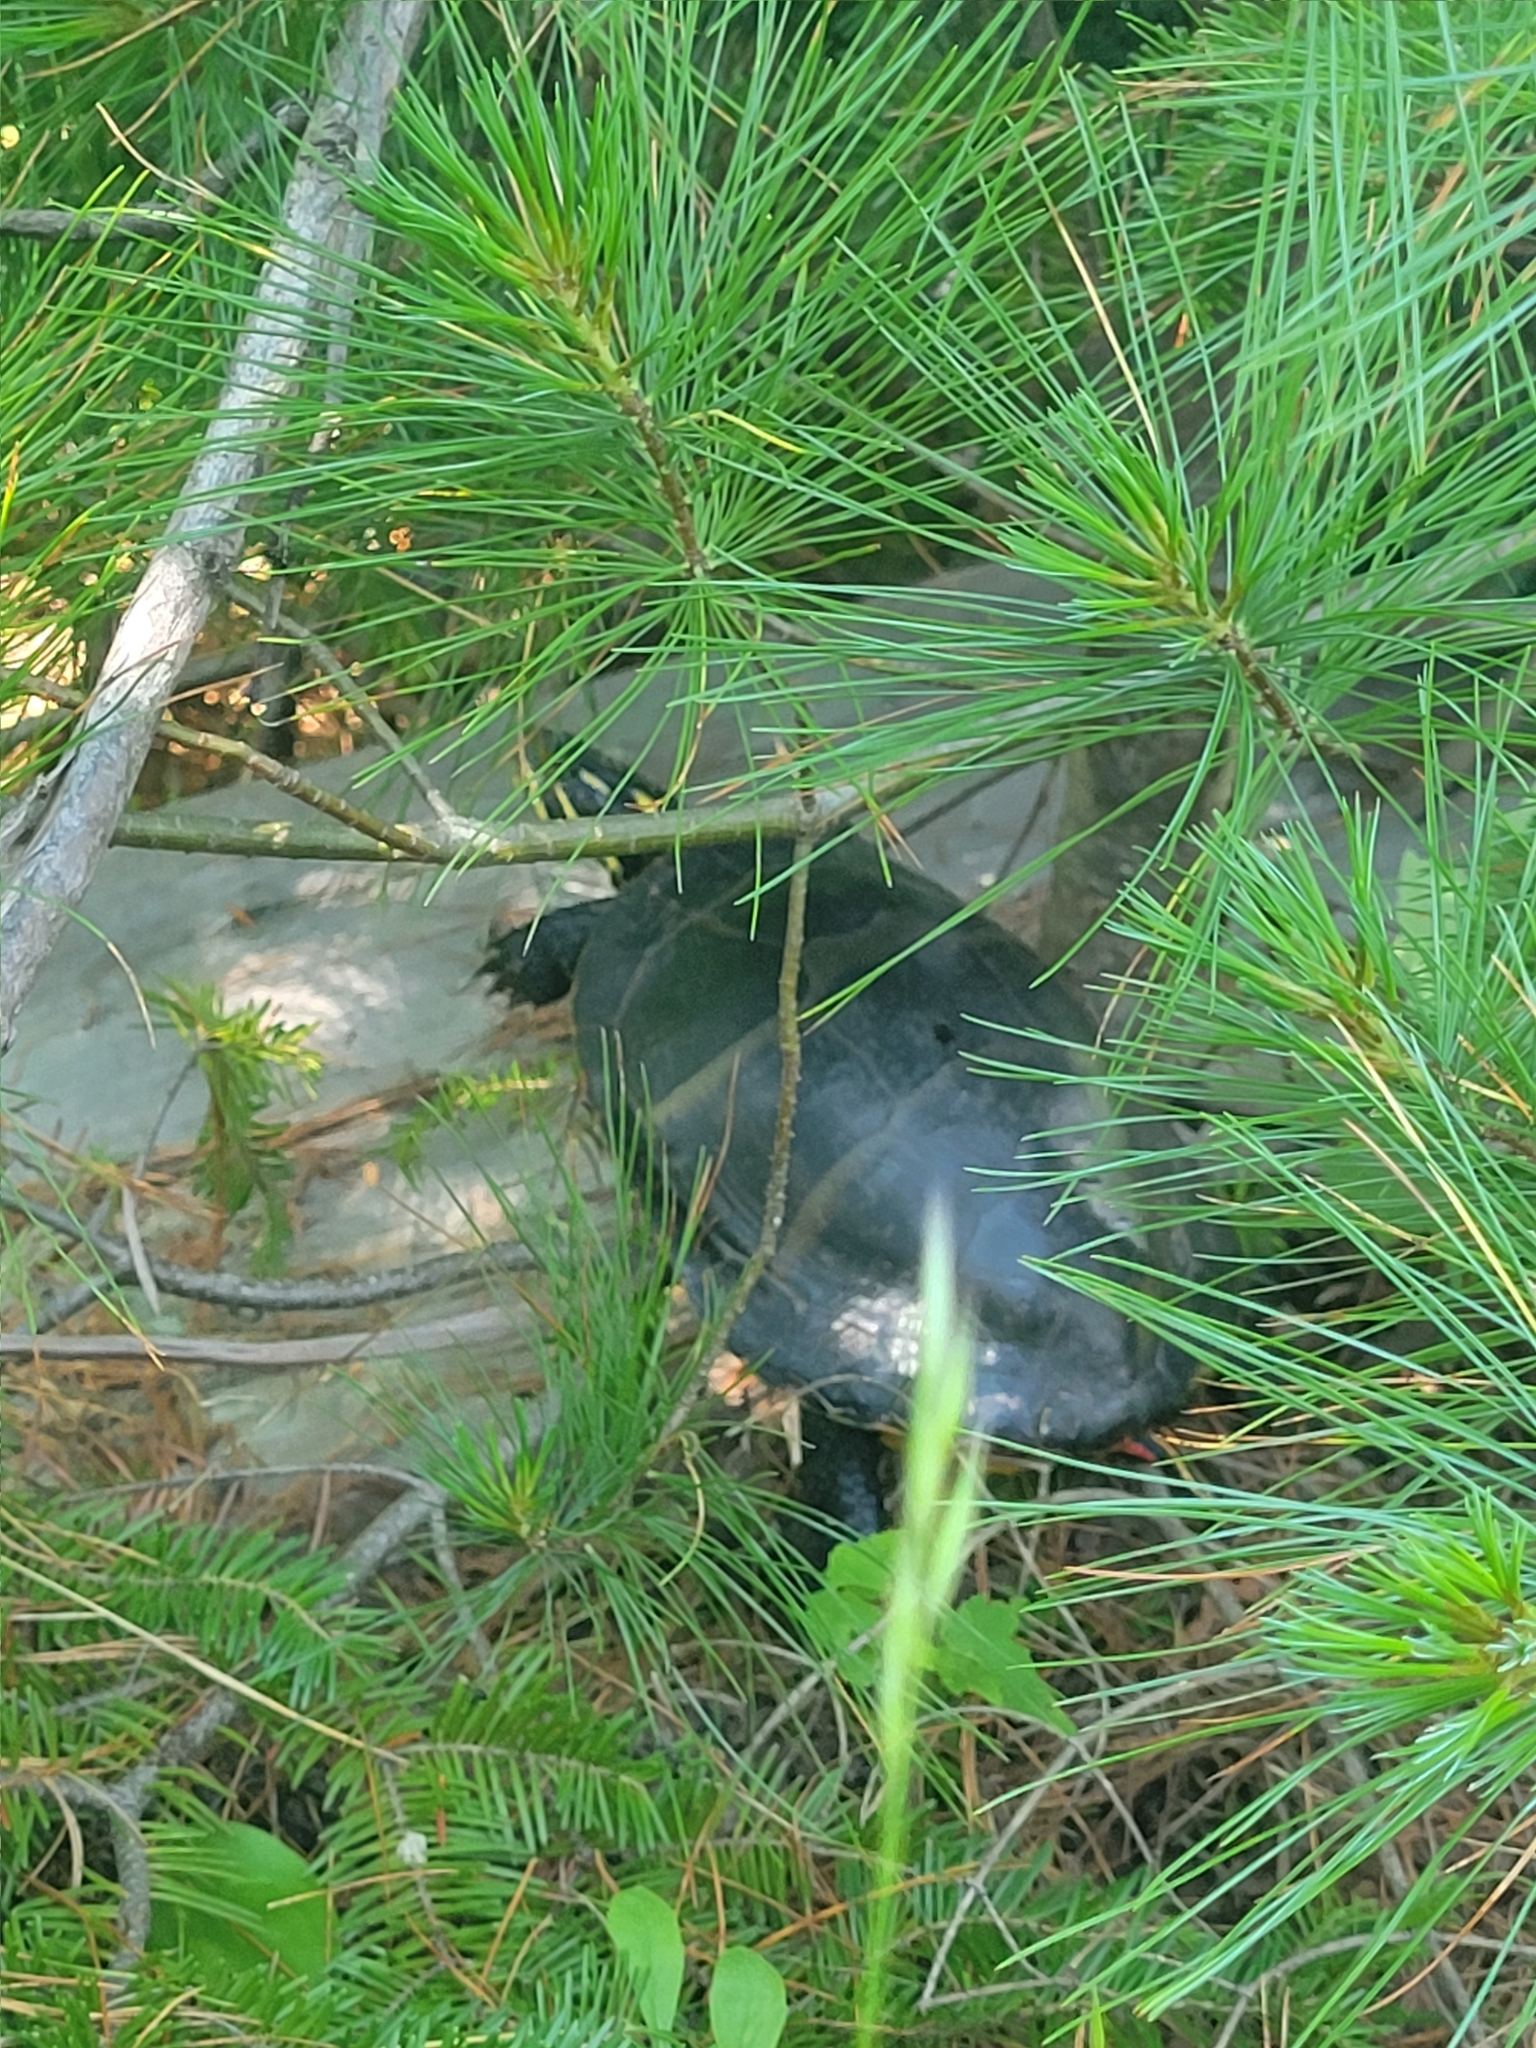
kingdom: Animalia
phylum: Chordata
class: Testudines
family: Emydidae
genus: Chrysemys
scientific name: Chrysemys picta
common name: Painted turtle
